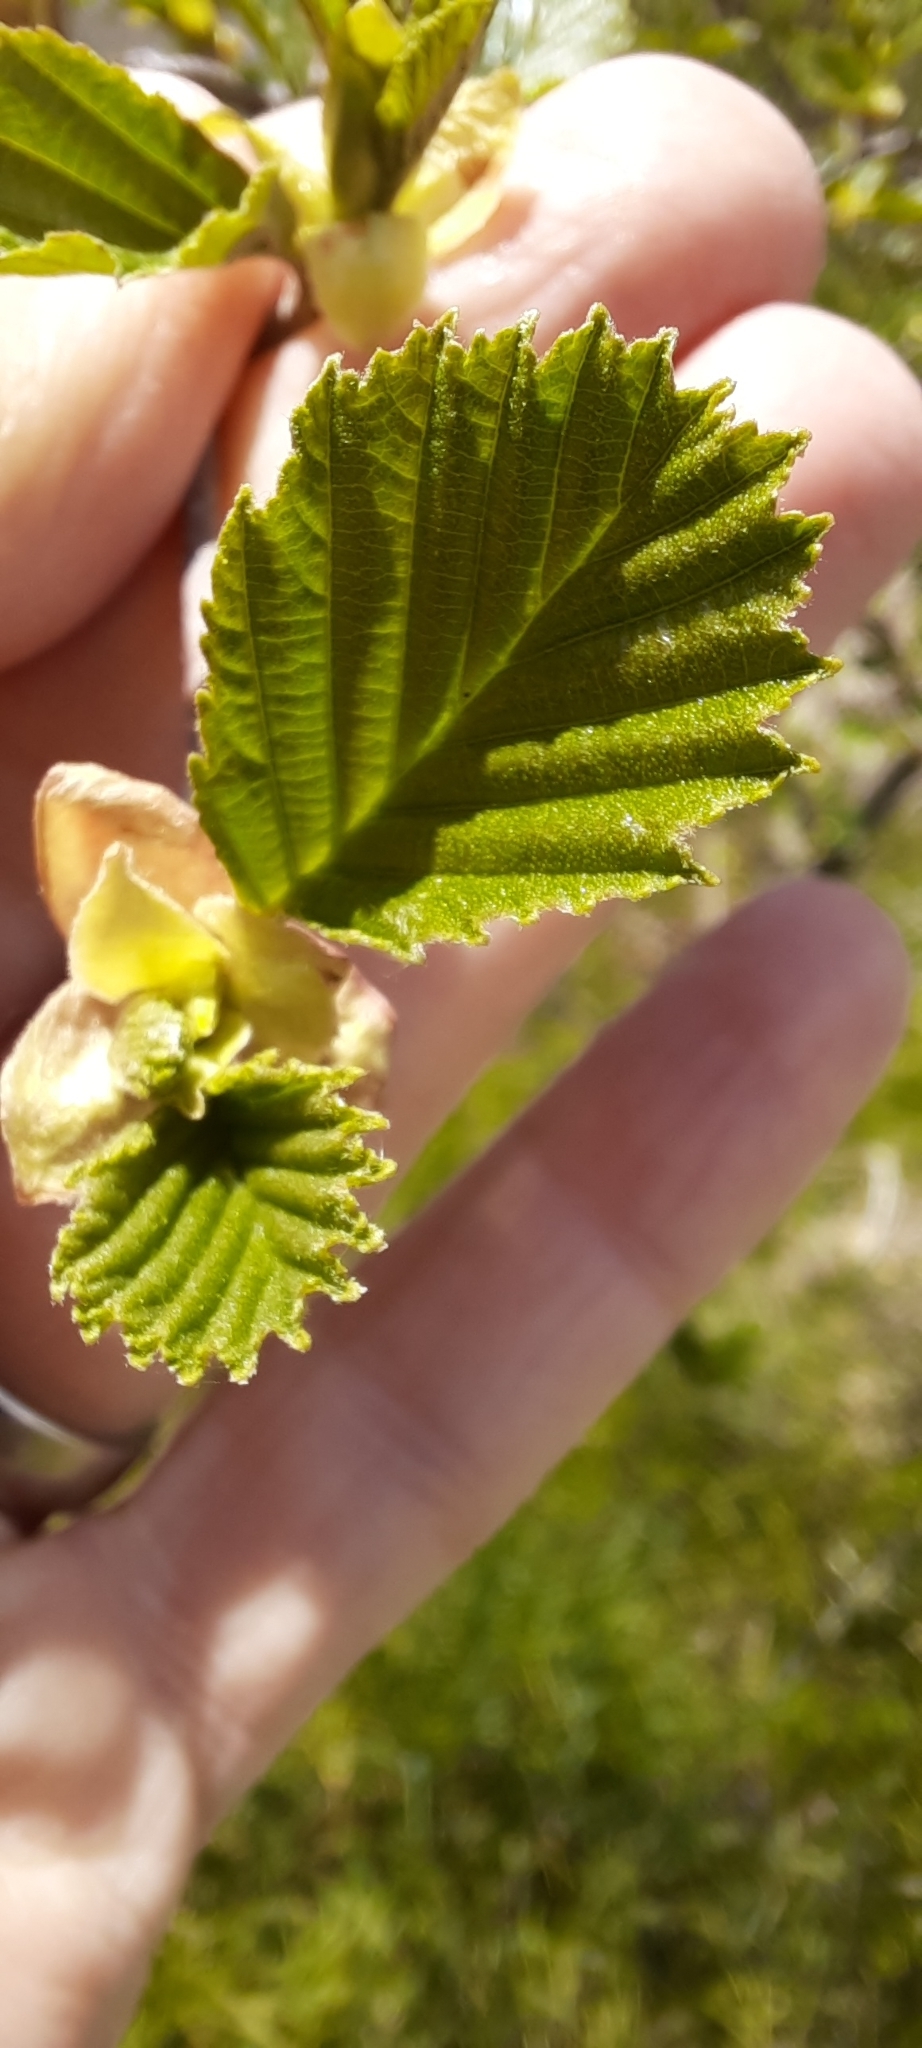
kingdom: Plantae
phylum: Tracheophyta
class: Magnoliopsida
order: Fagales
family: Betulaceae
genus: Alnus
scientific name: Alnus glutinosa
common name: Black alder
